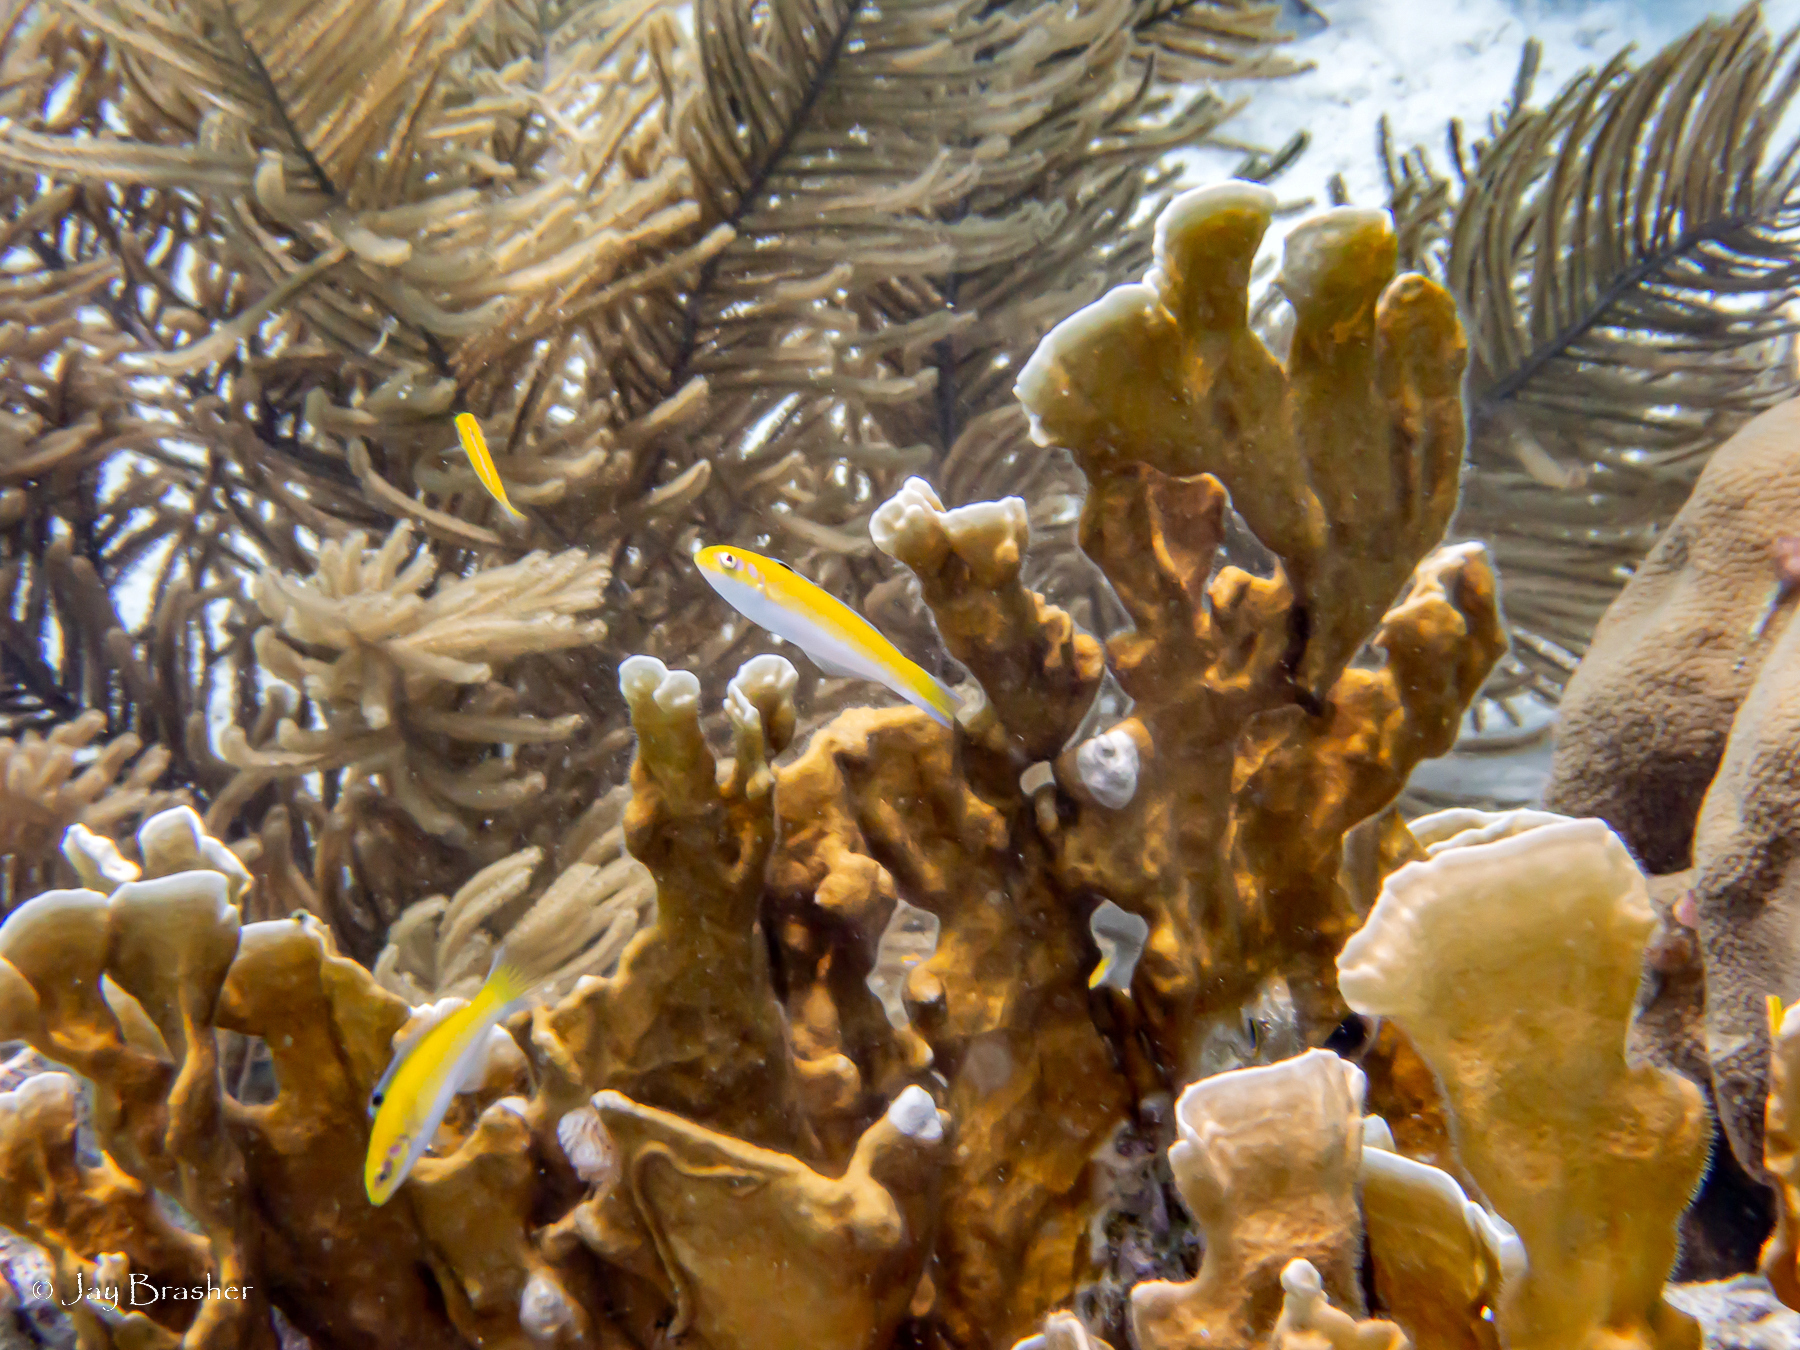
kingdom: Animalia
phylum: Chordata
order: Perciformes
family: Labridae
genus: Thalassoma
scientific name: Thalassoma bifasciatum
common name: Bluehead wrasse
